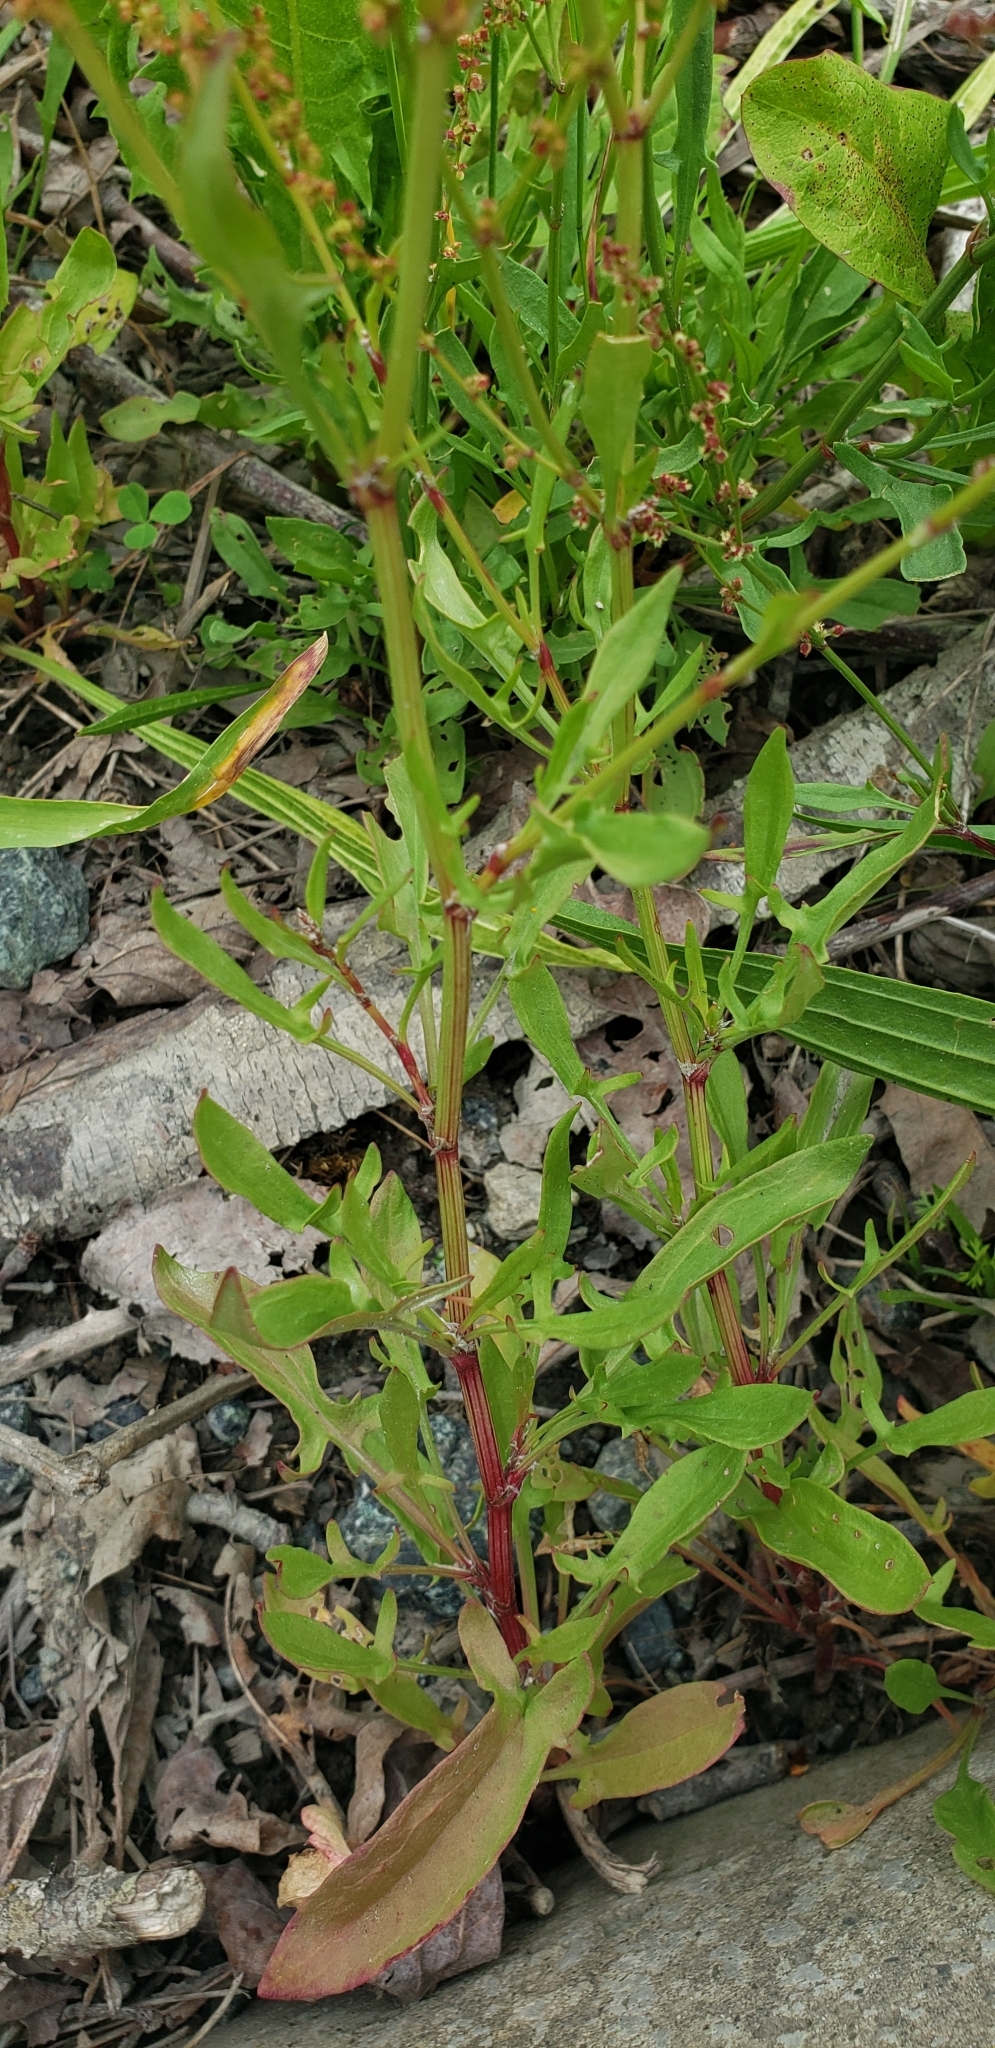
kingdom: Plantae
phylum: Tracheophyta
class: Magnoliopsida
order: Caryophyllales
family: Polygonaceae
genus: Rumex
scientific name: Rumex acetosella
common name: Common sheep sorrel
